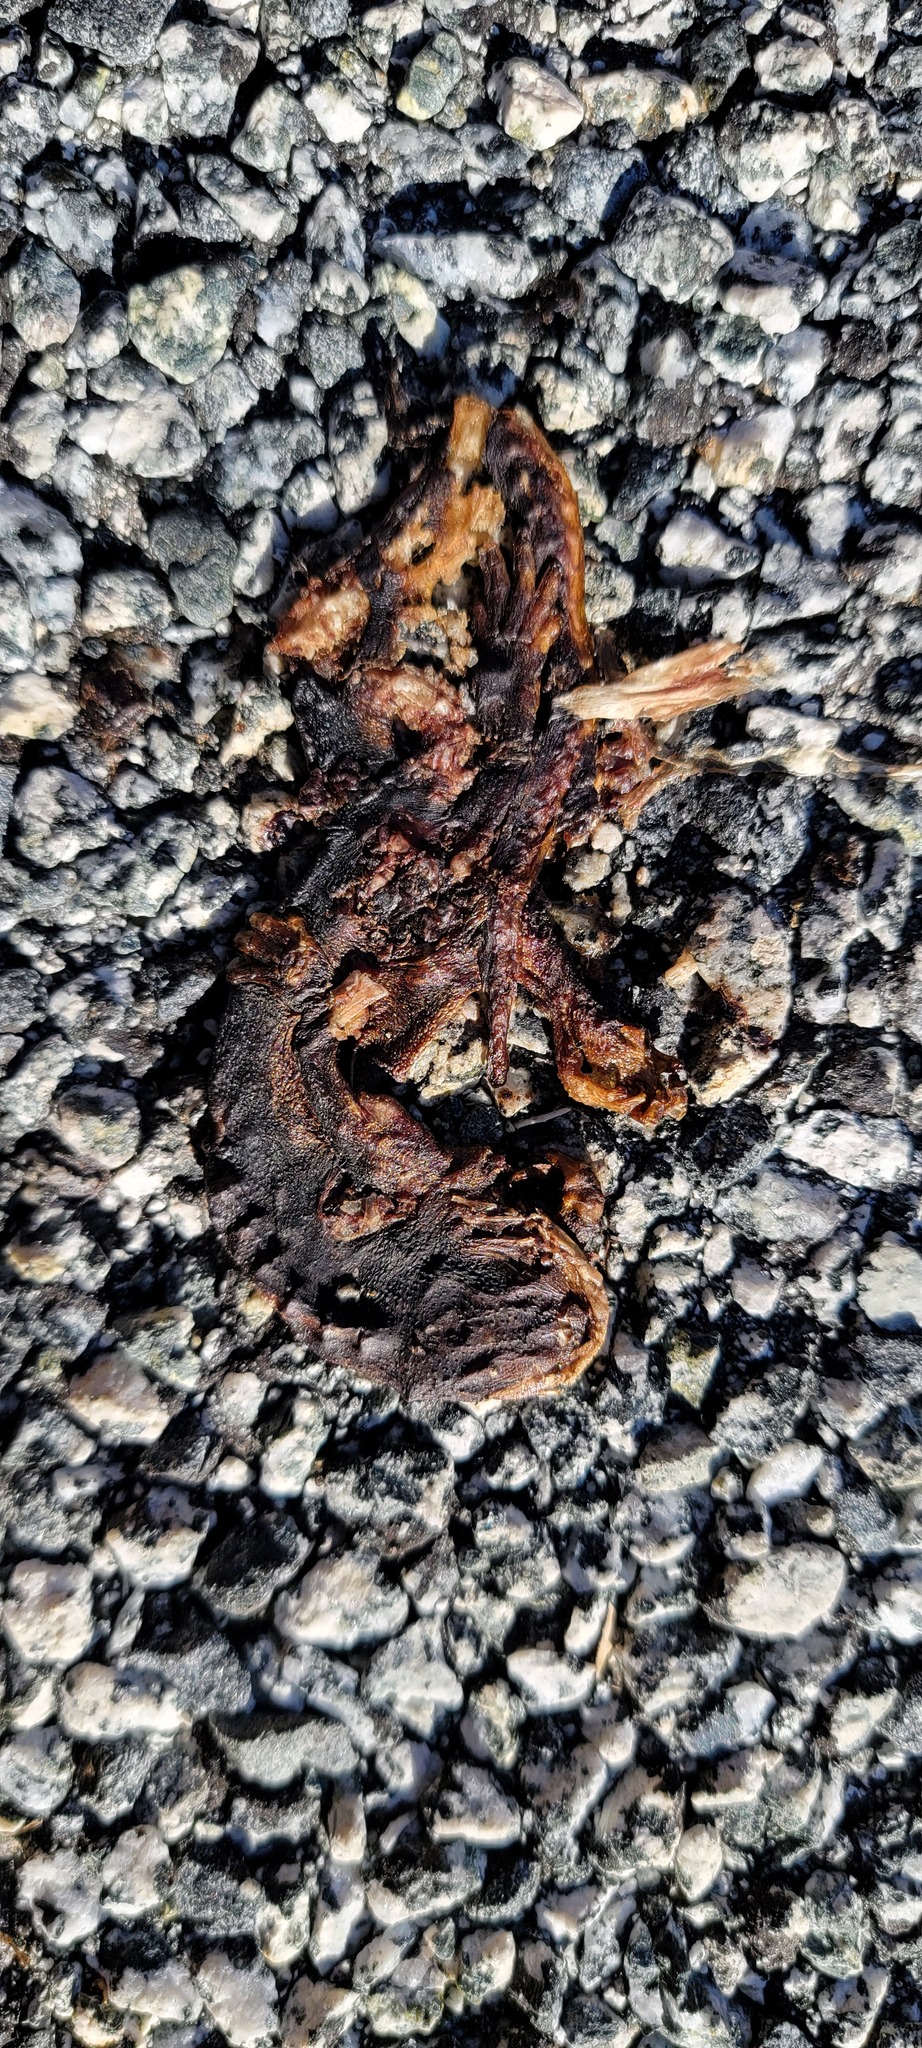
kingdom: Animalia
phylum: Chordata
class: Amphibia
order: Caudata
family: Salamandridae
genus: Taricha
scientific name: Taricha
